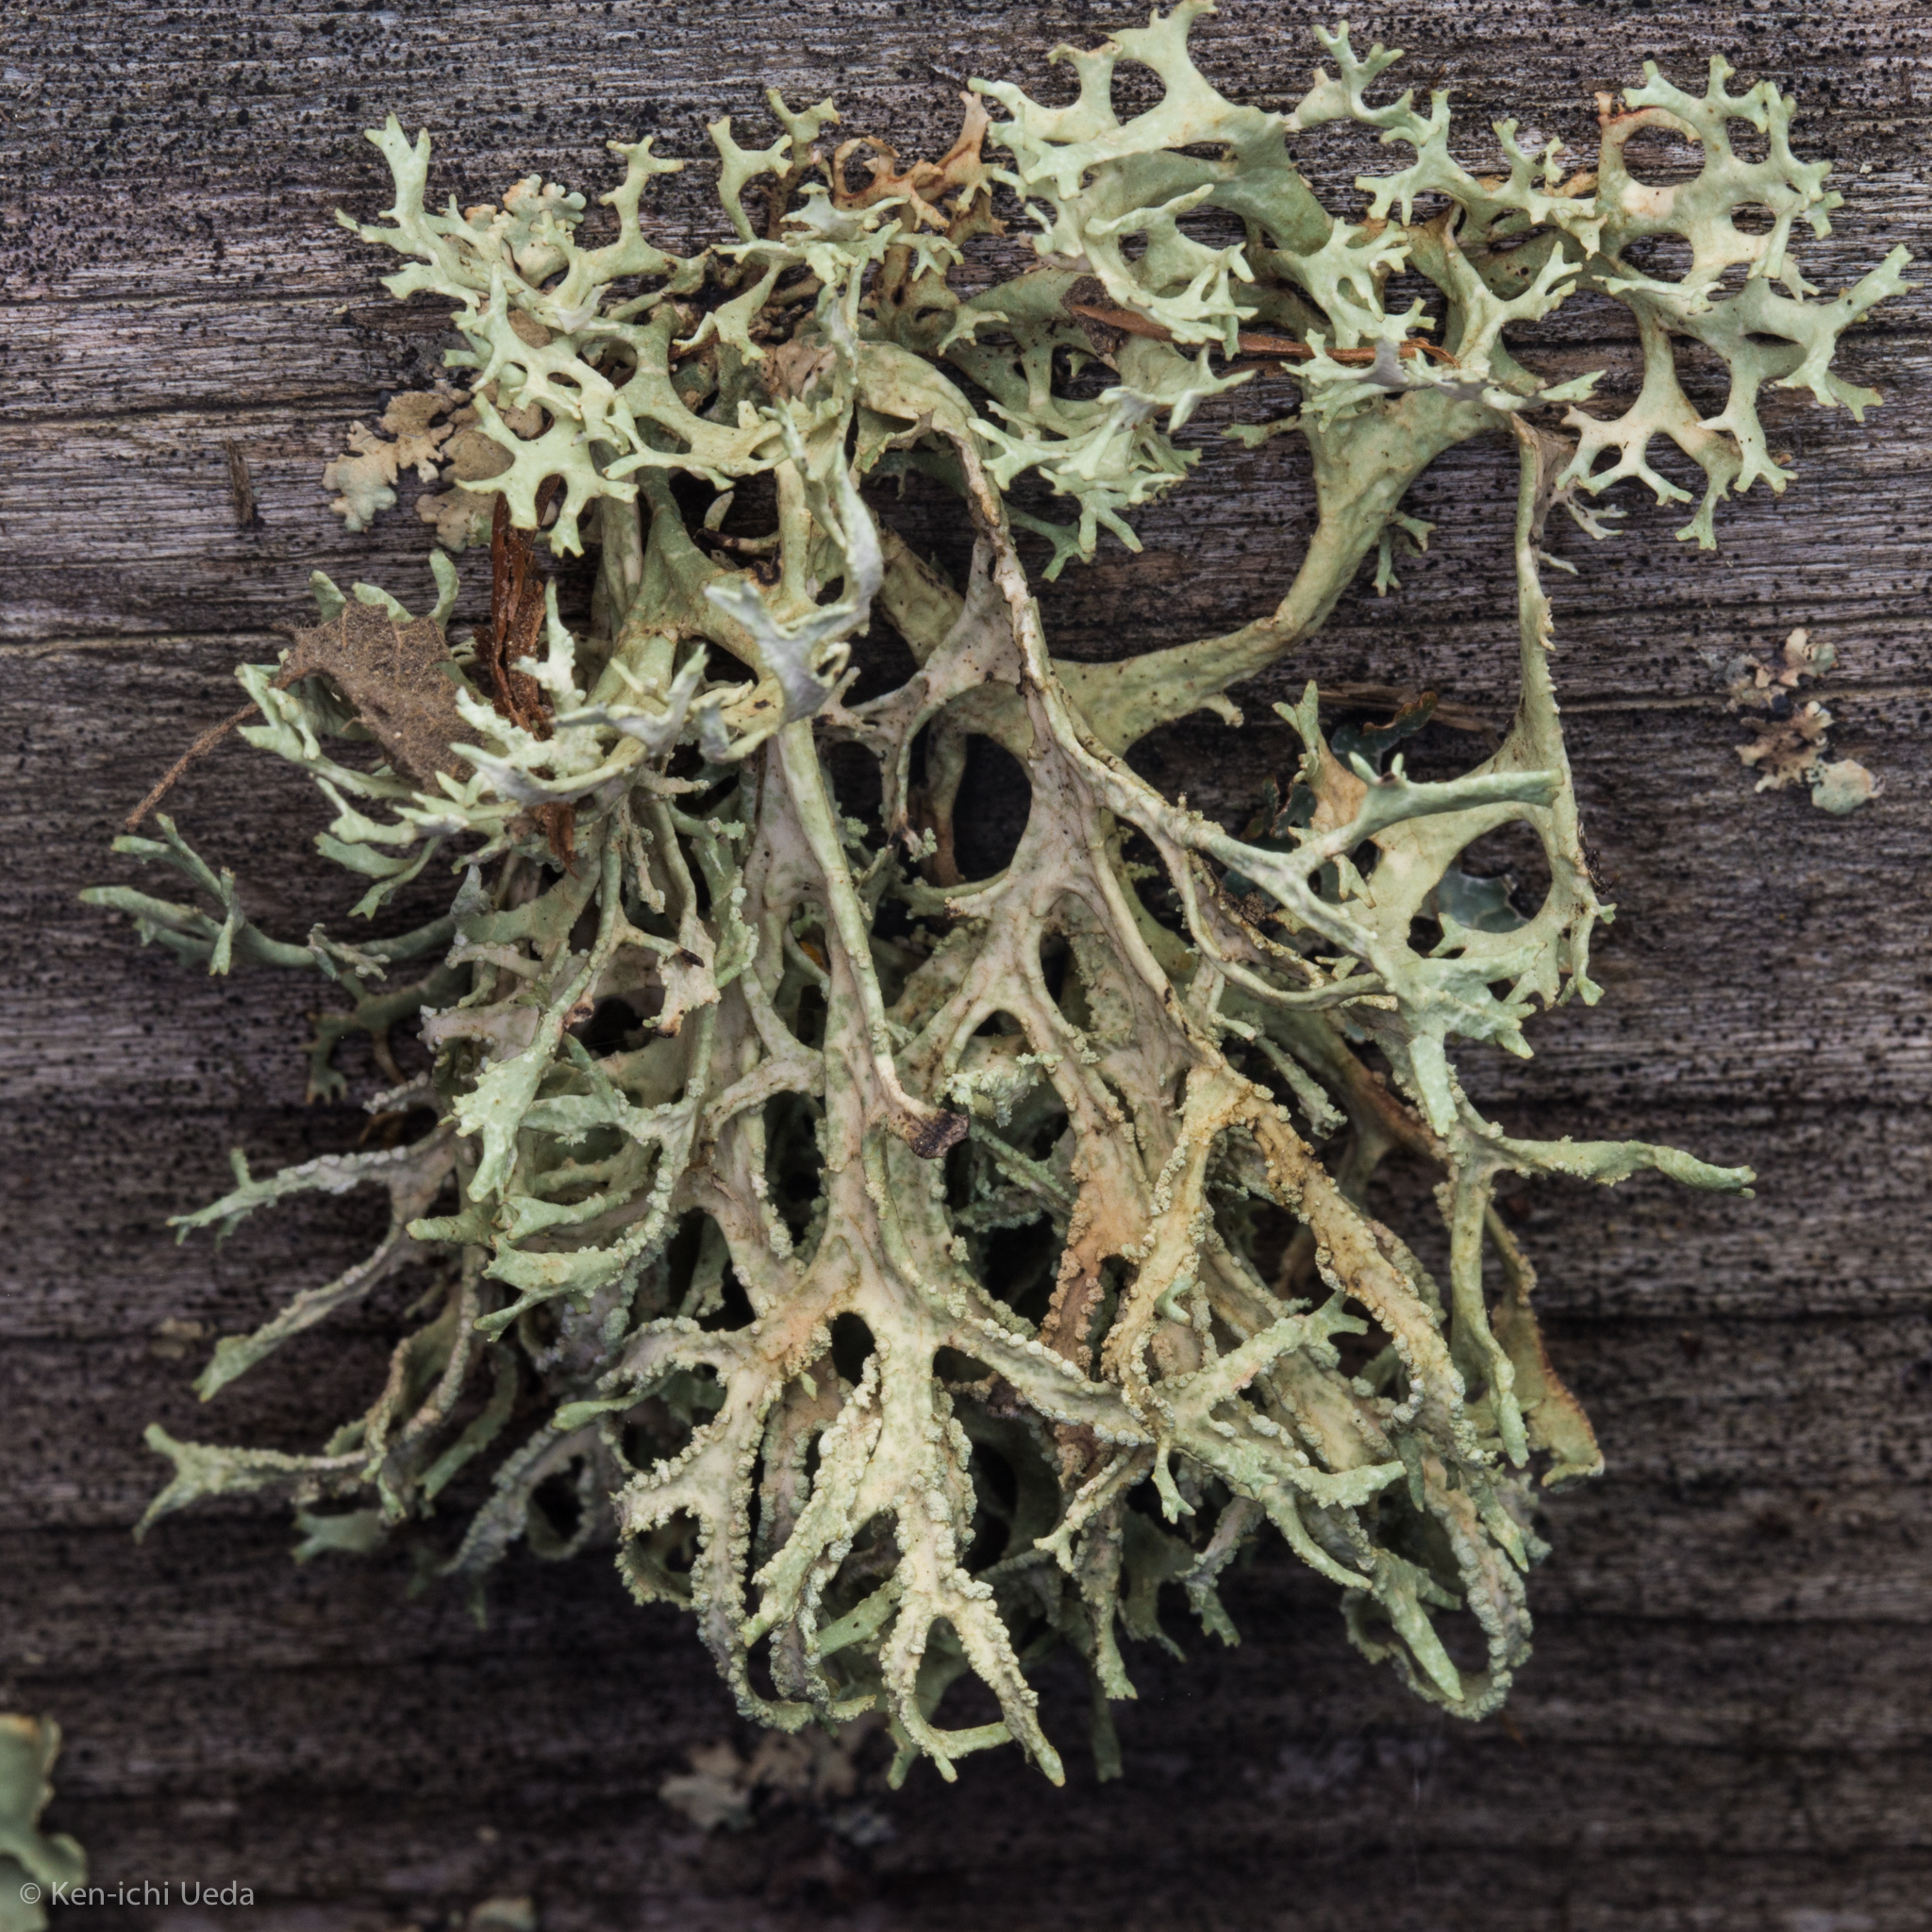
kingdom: Fungi
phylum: Ascomycota
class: Lecanoromycetes
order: Lecanorales
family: Parmeliaceae
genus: Evernia
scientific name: Evernia prunastri
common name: Oak moss
